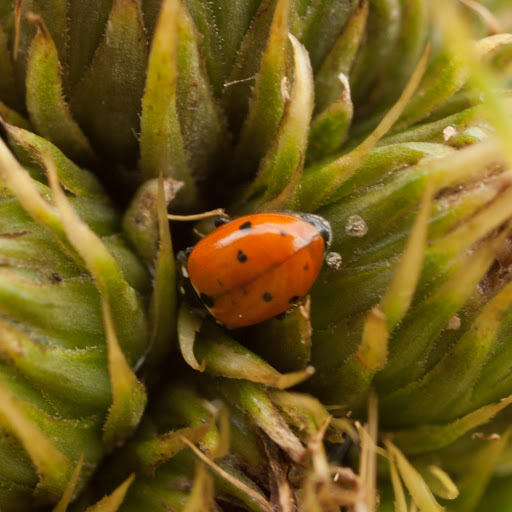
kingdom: Animalia
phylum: Arthropoda
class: Insecta
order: Coleoptera
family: Coccinellidae
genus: Hippodamia
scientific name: Hippodamia variegata
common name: Ladybird beetle
